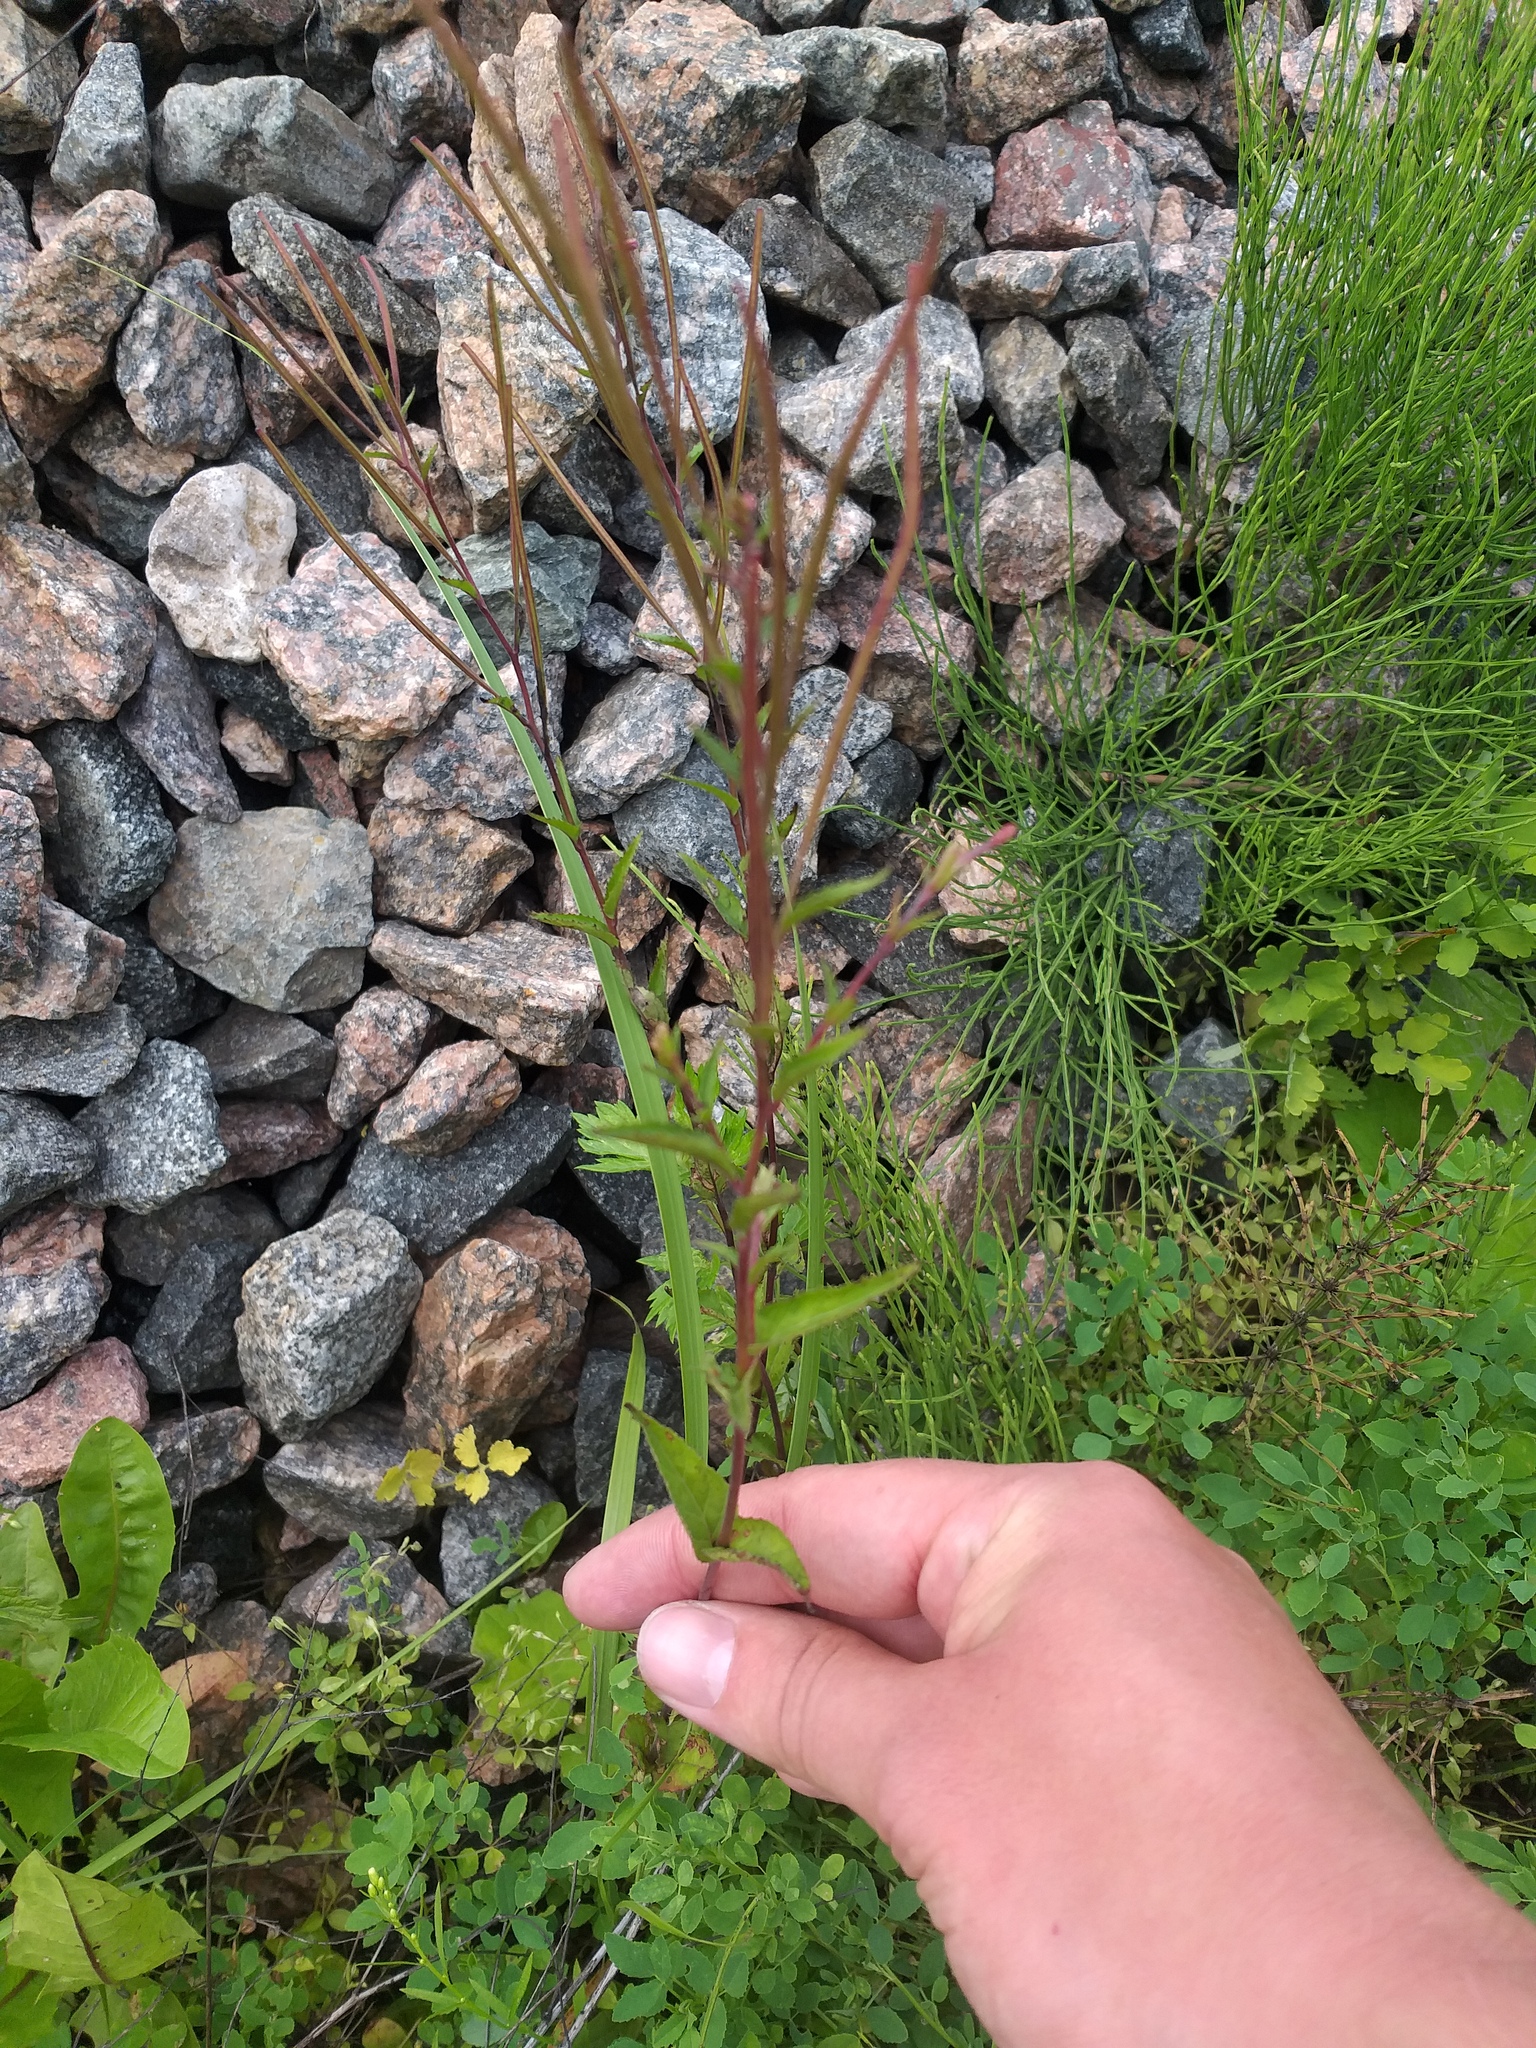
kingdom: Plantae
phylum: Tracheophyta
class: Magnoliopsida
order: Myrtales
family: Onagraceae
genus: Epilobium
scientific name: Epilobium montanum
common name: Broad-leaved willowherb
